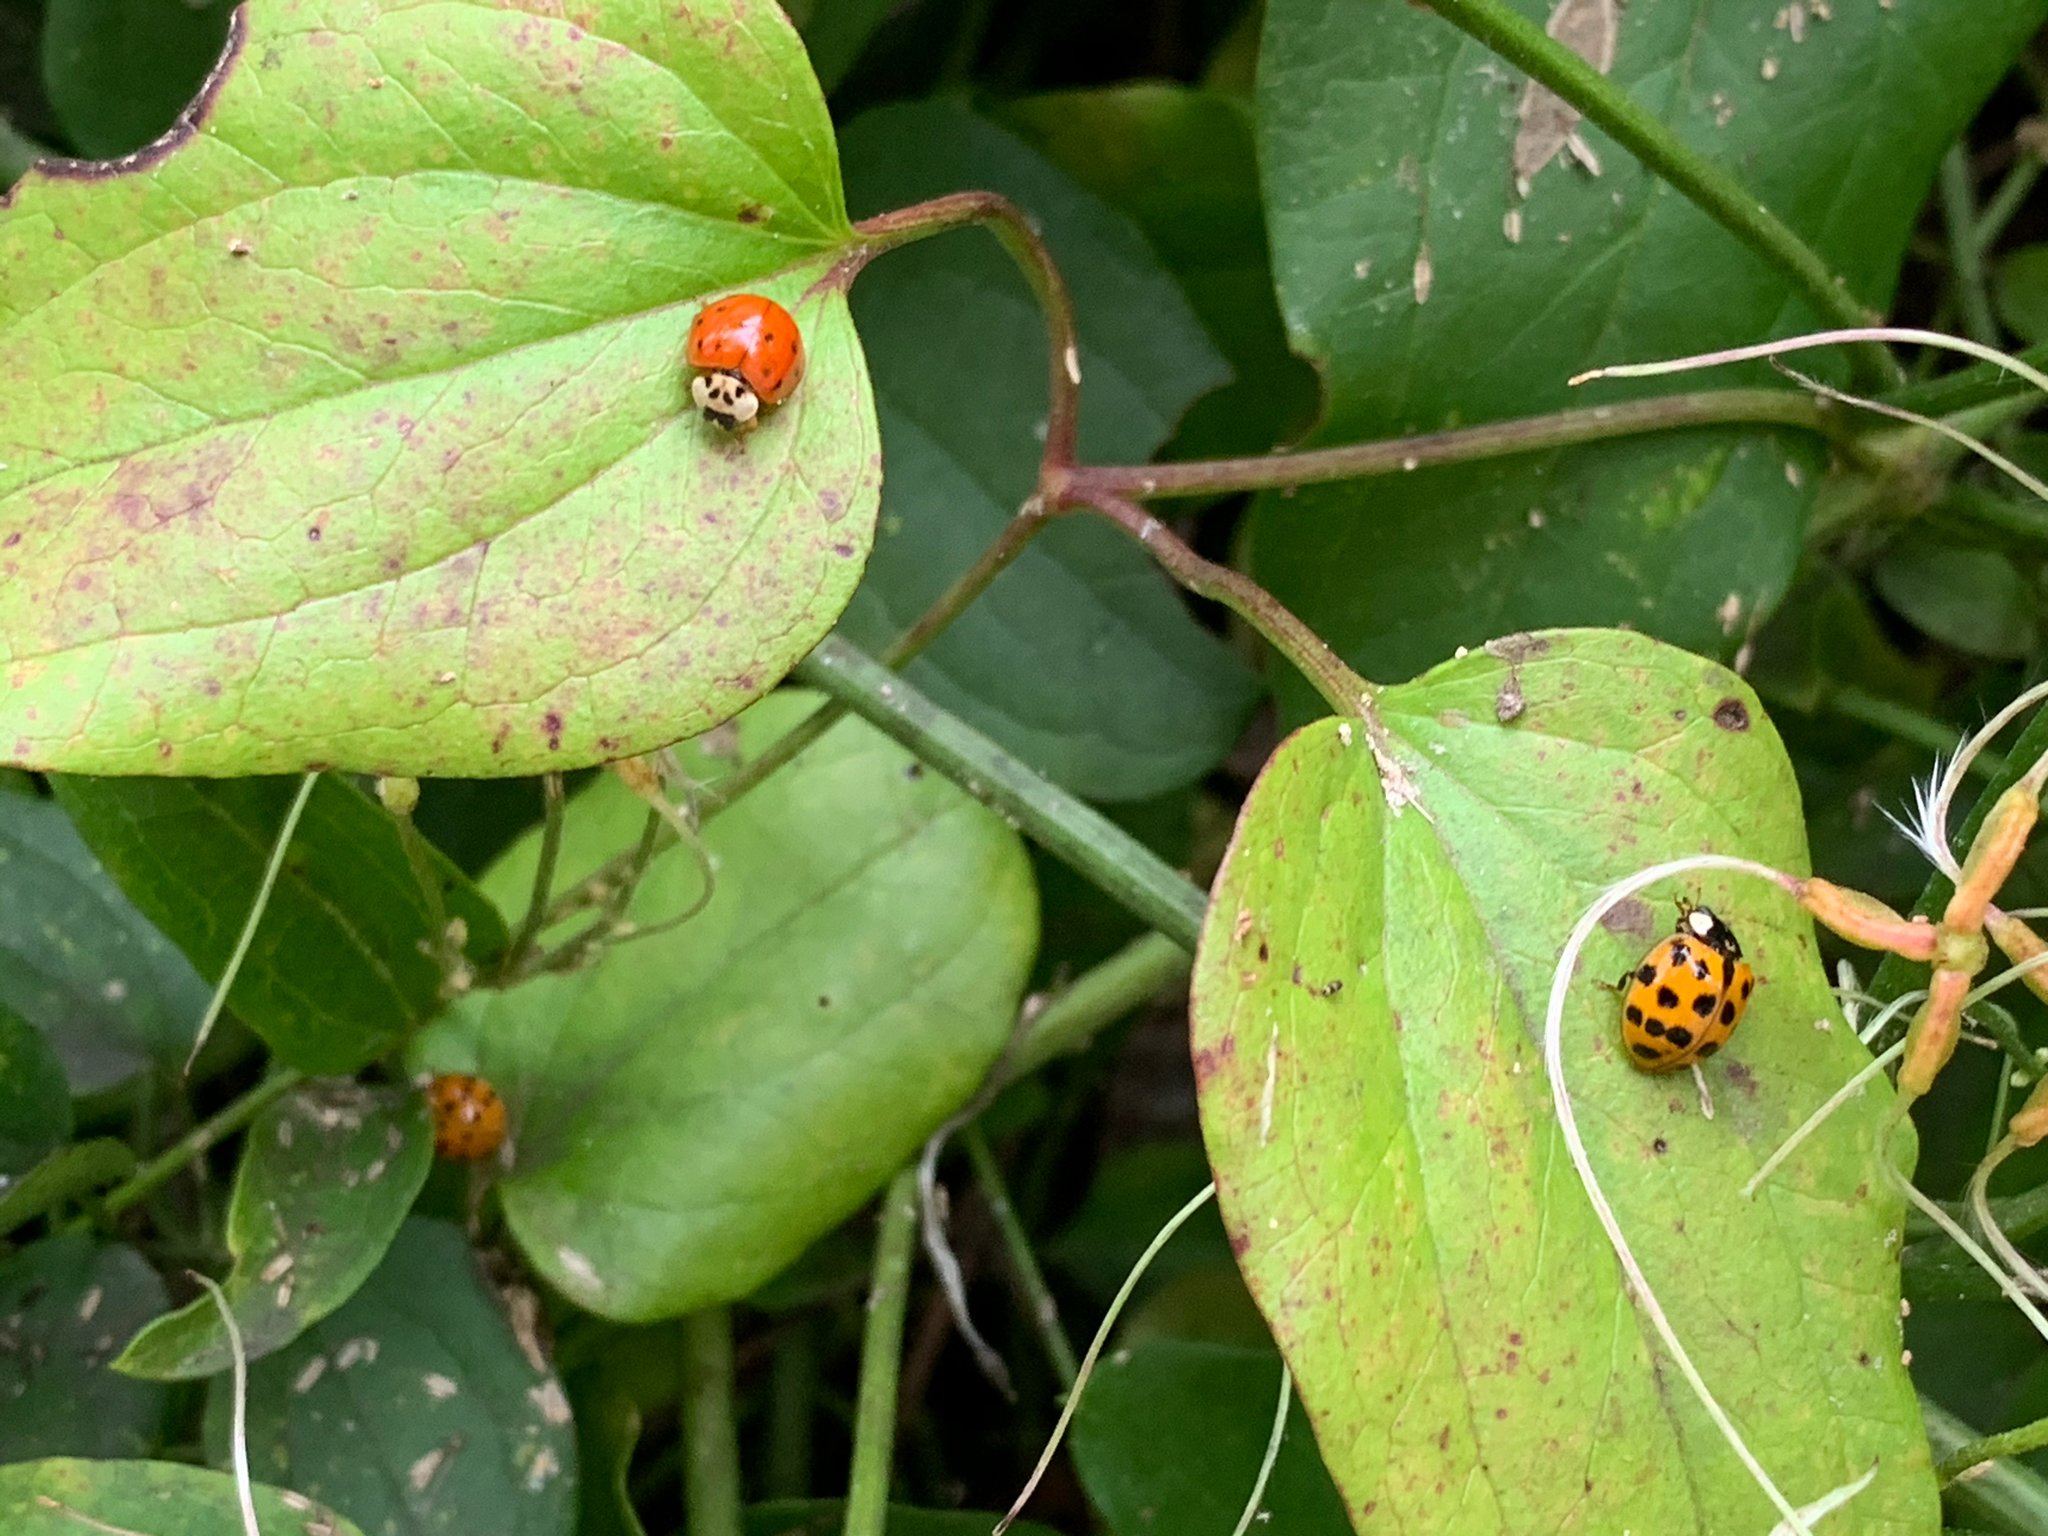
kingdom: Animalia
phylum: Arthropoda
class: Insecta
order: Coleoptera
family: Coccinellidae
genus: Harmonia
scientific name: Harmonia axyridis
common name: Harlequin ladybird
